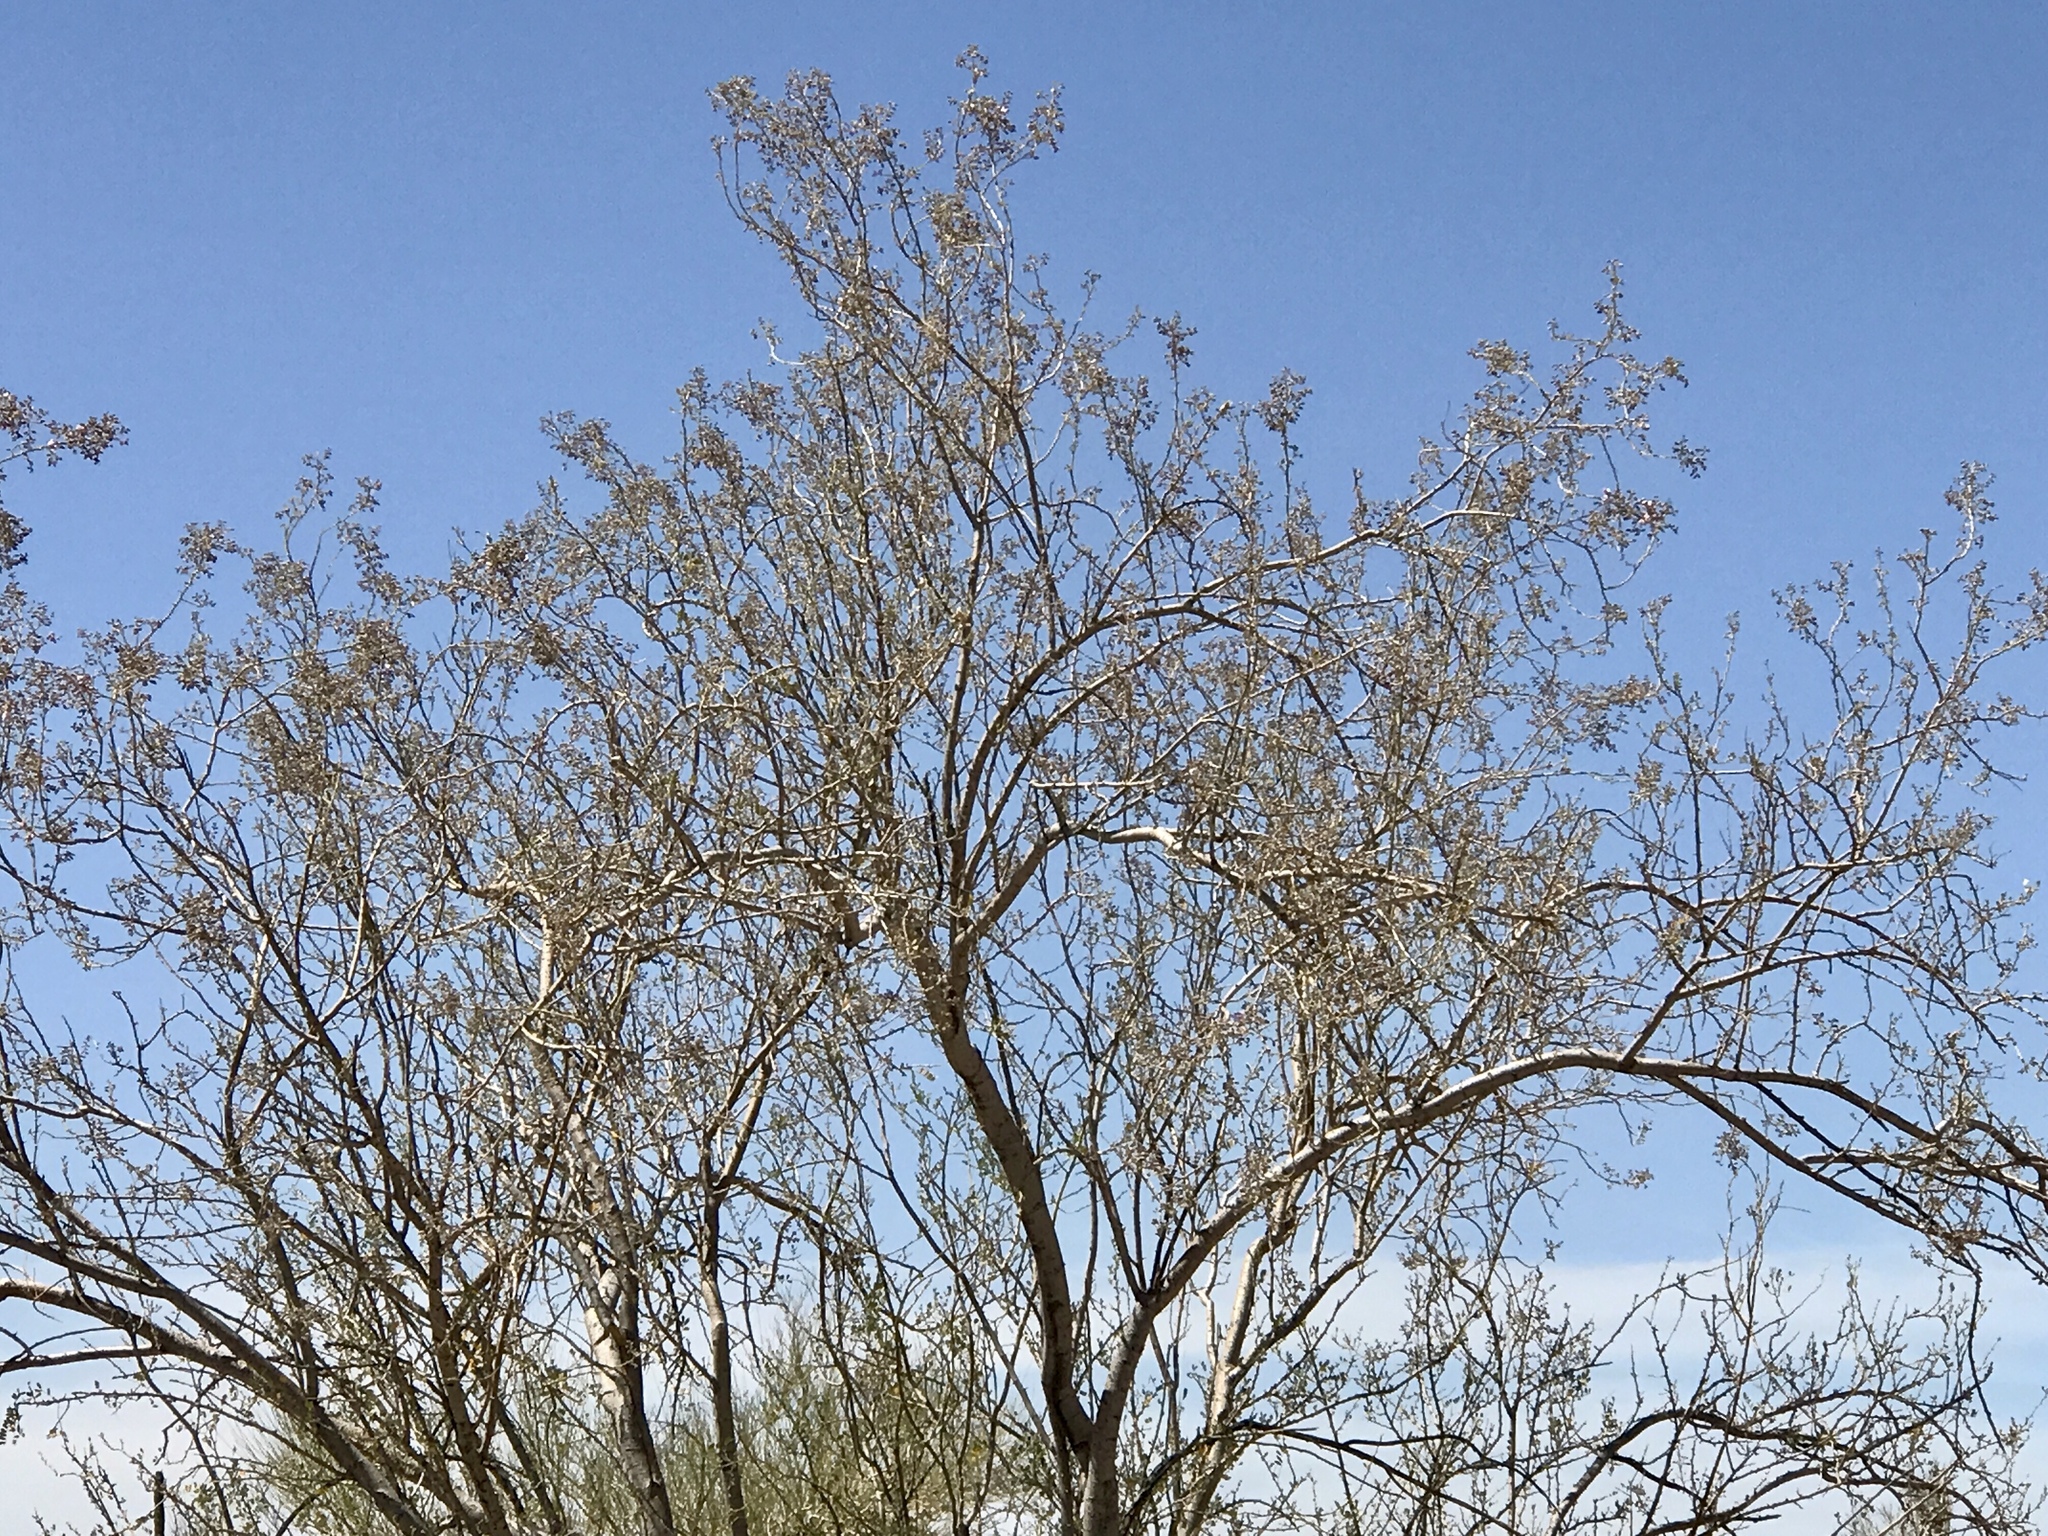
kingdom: Plantae
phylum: Tracheophyta
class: Magnoliopsida
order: Fabales
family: Fabaceae
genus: Olneya
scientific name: Olneya tesota
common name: Desert ironwood
